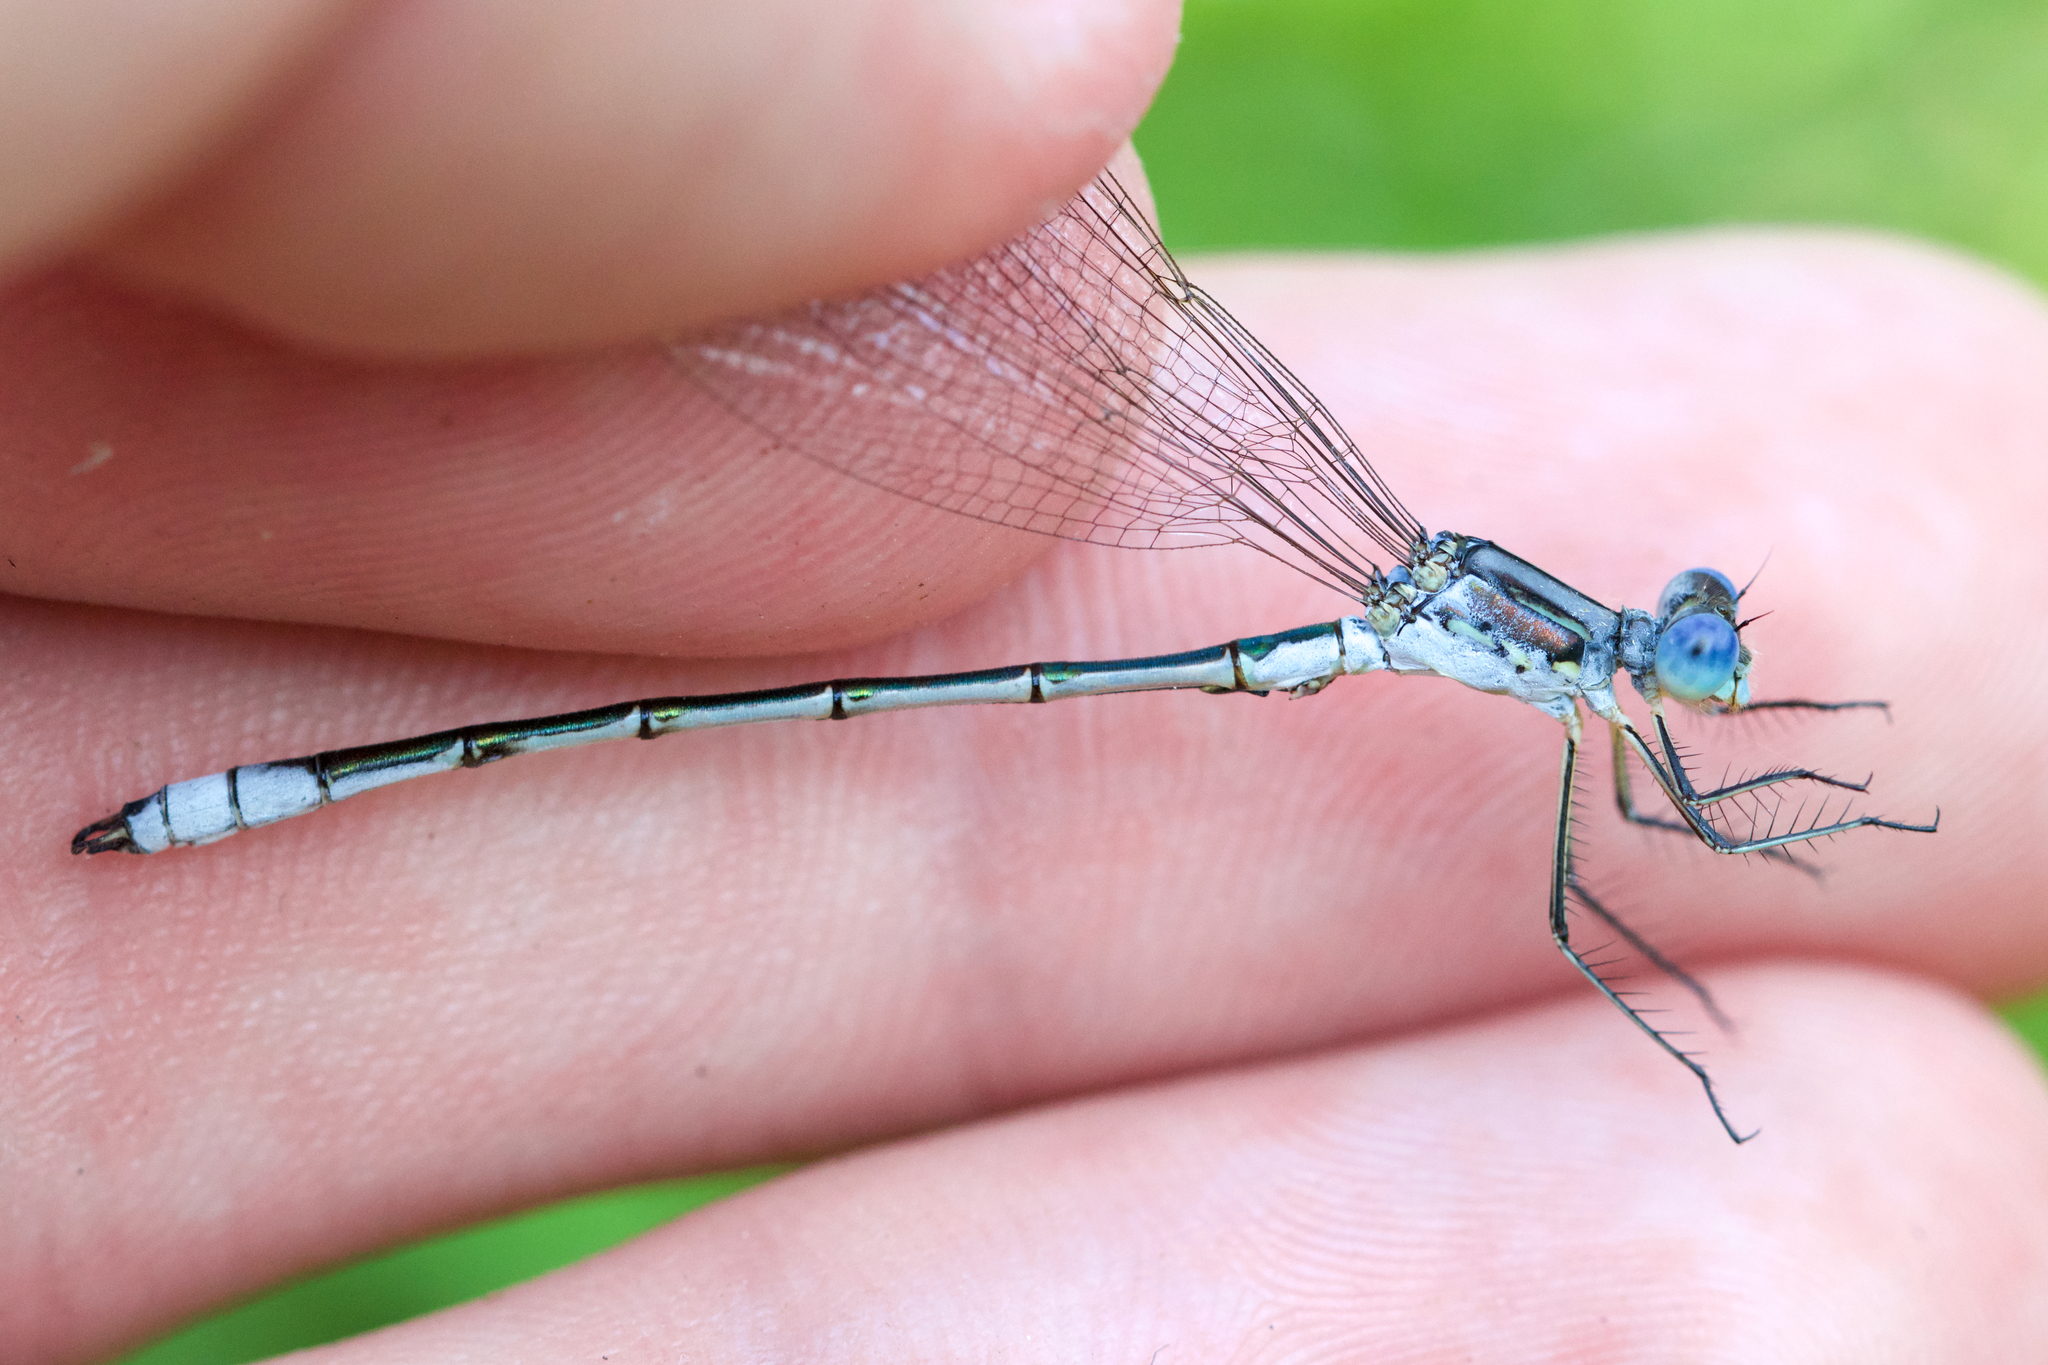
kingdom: Animalia
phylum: Arthropoda
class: Insecta
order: Odonata
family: Lestidae
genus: Lestes
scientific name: Lestes unguiculatus
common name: Lyre-tipped spreadwing
